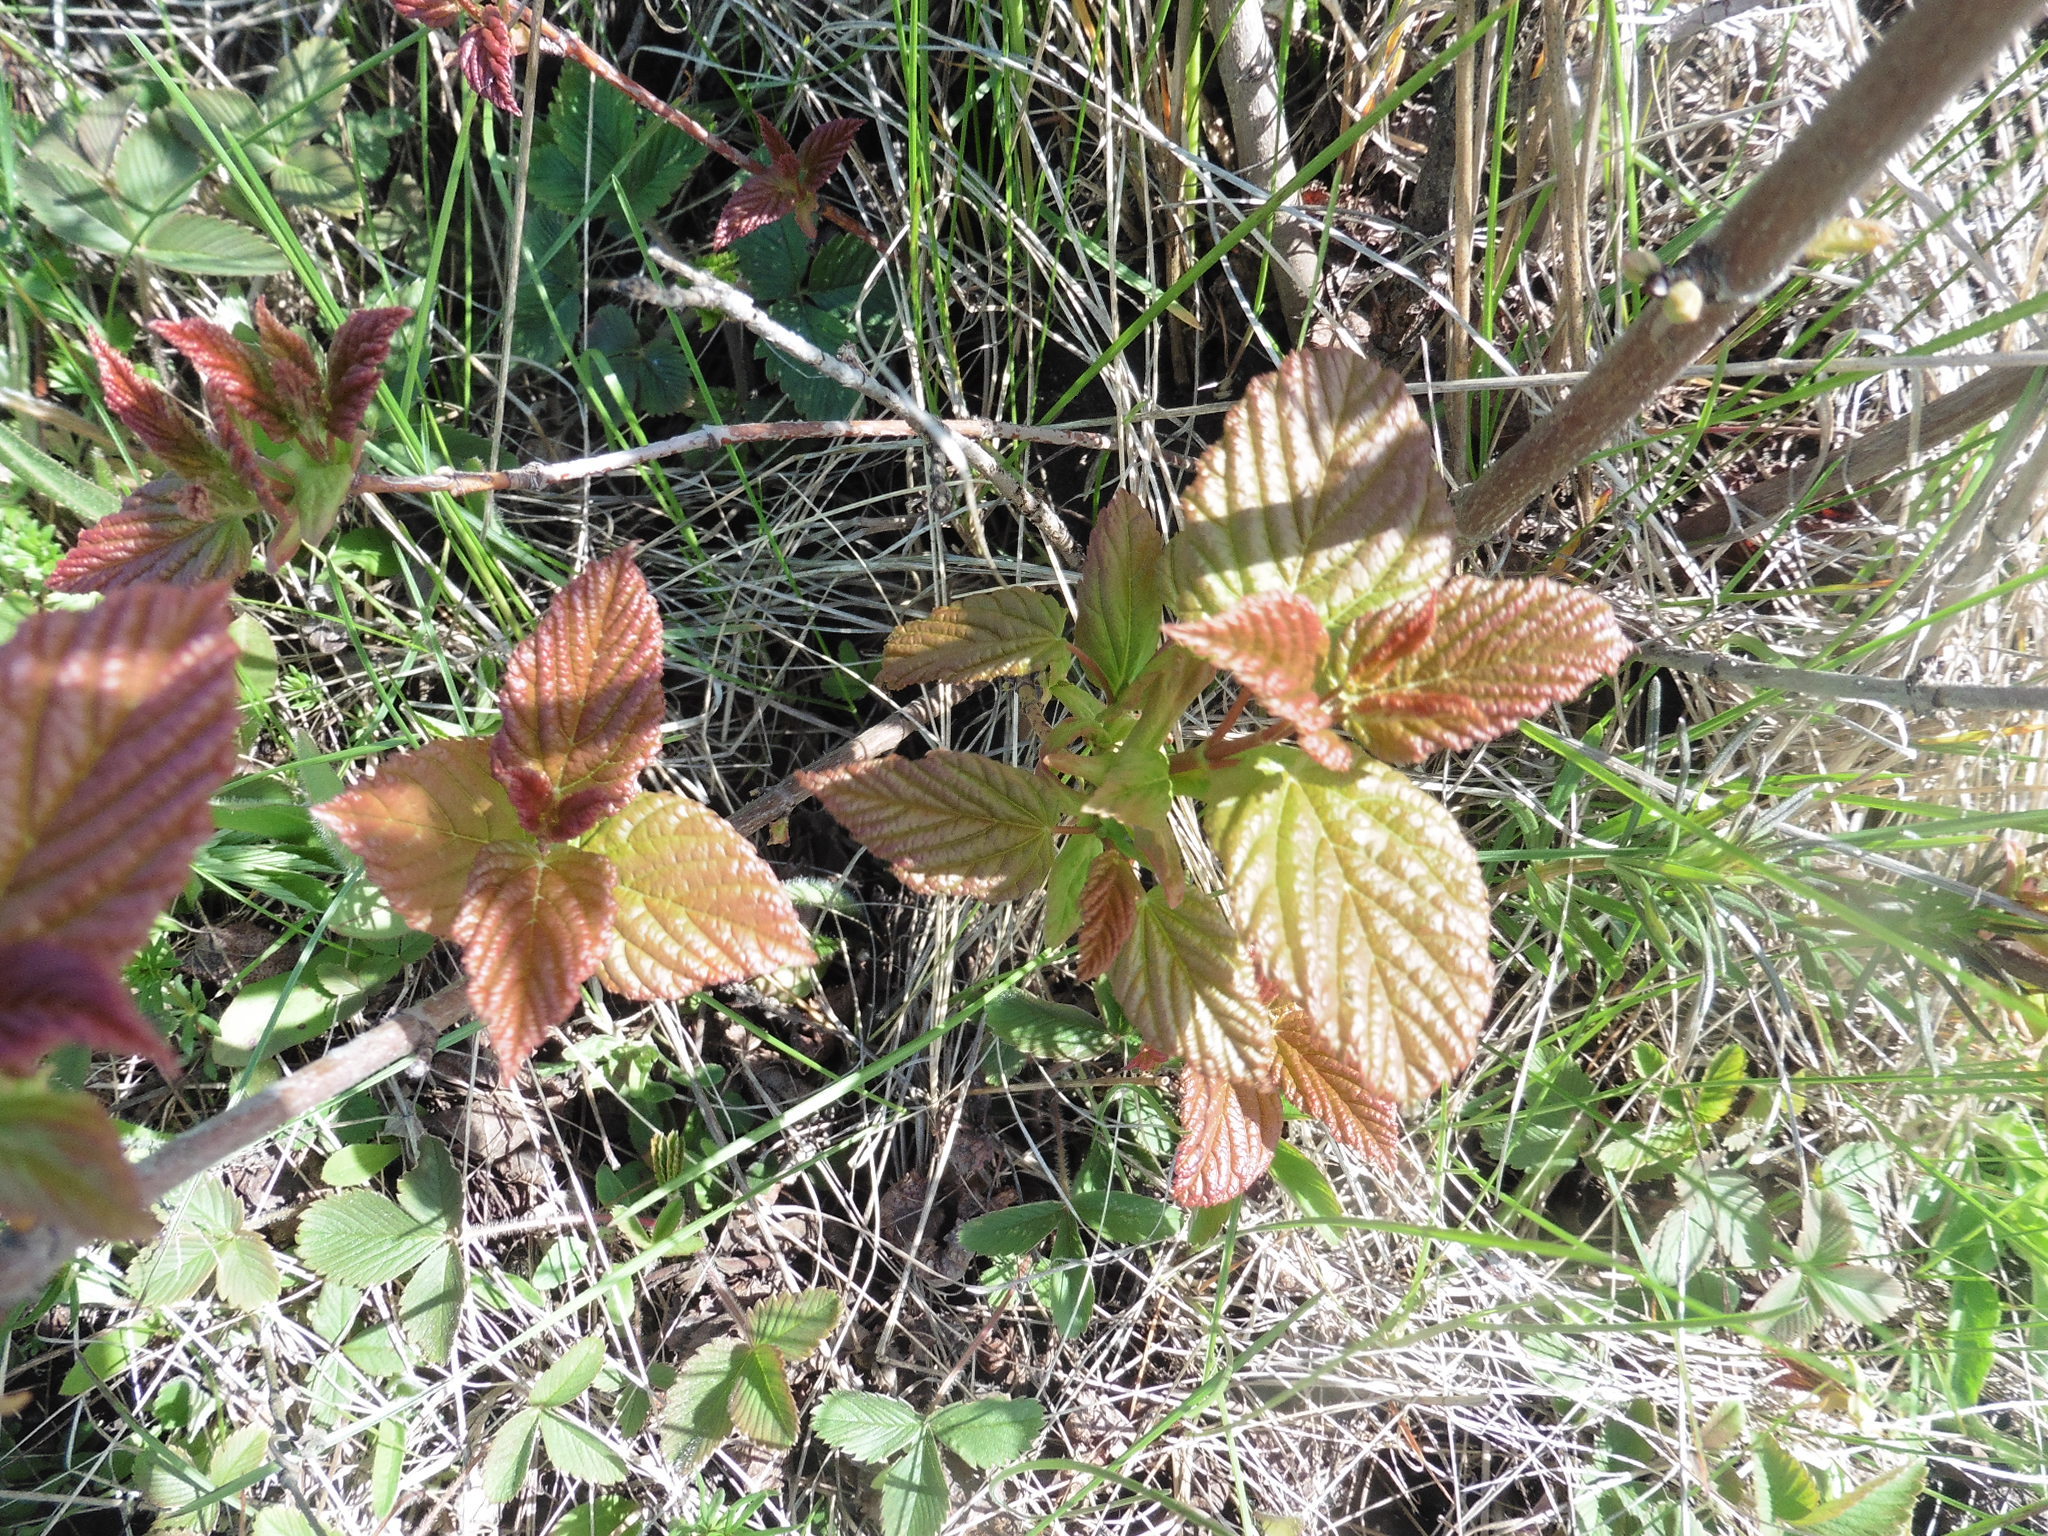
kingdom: Plantae
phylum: Tracheophyta
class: Magnoliopsida
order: Sapindales
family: Sapindaceae
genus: Acer
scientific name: Acer tataricum
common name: Tartar maple
